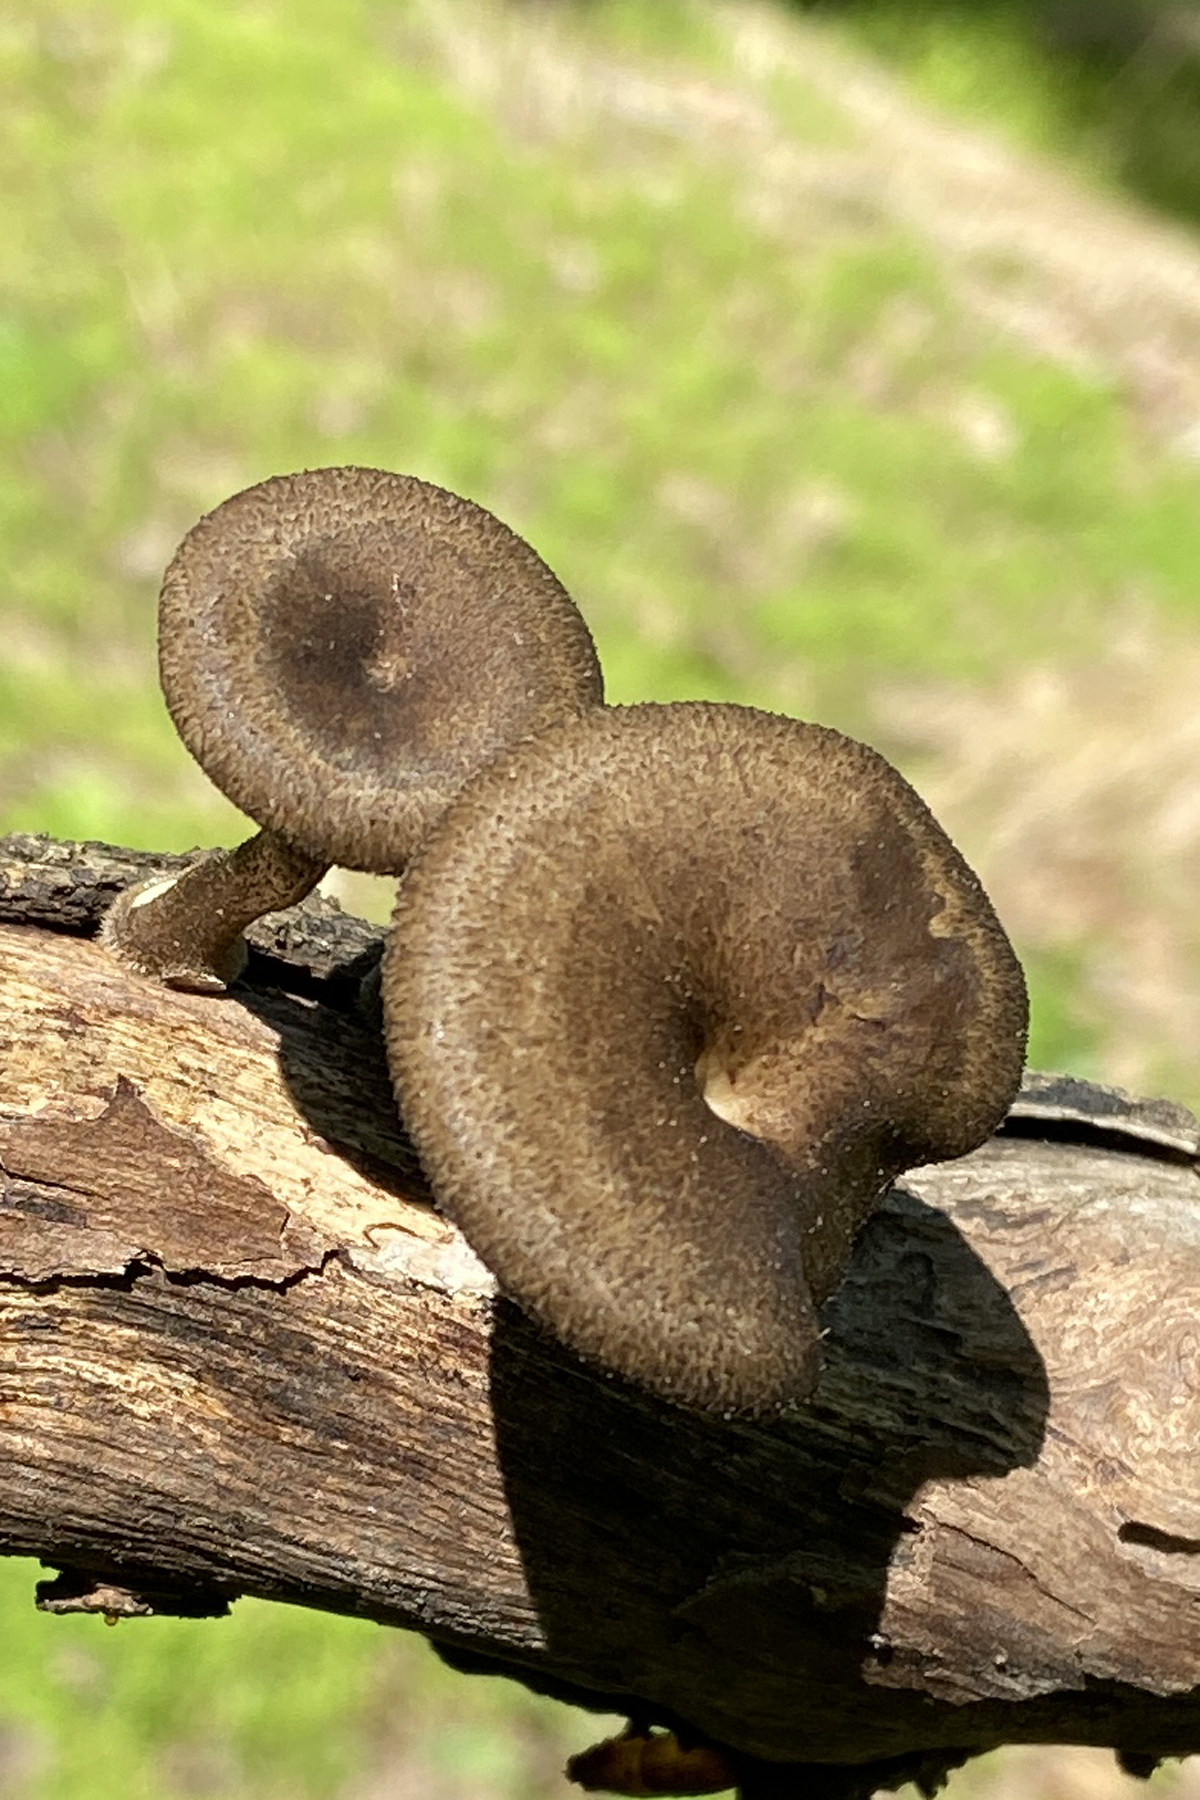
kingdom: Fungi
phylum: Basidiomycota
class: Agaricomycetes
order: Polyporales
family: Polyporaceae
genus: Lentinus
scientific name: Lentinus arcularius
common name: Spring polypore
